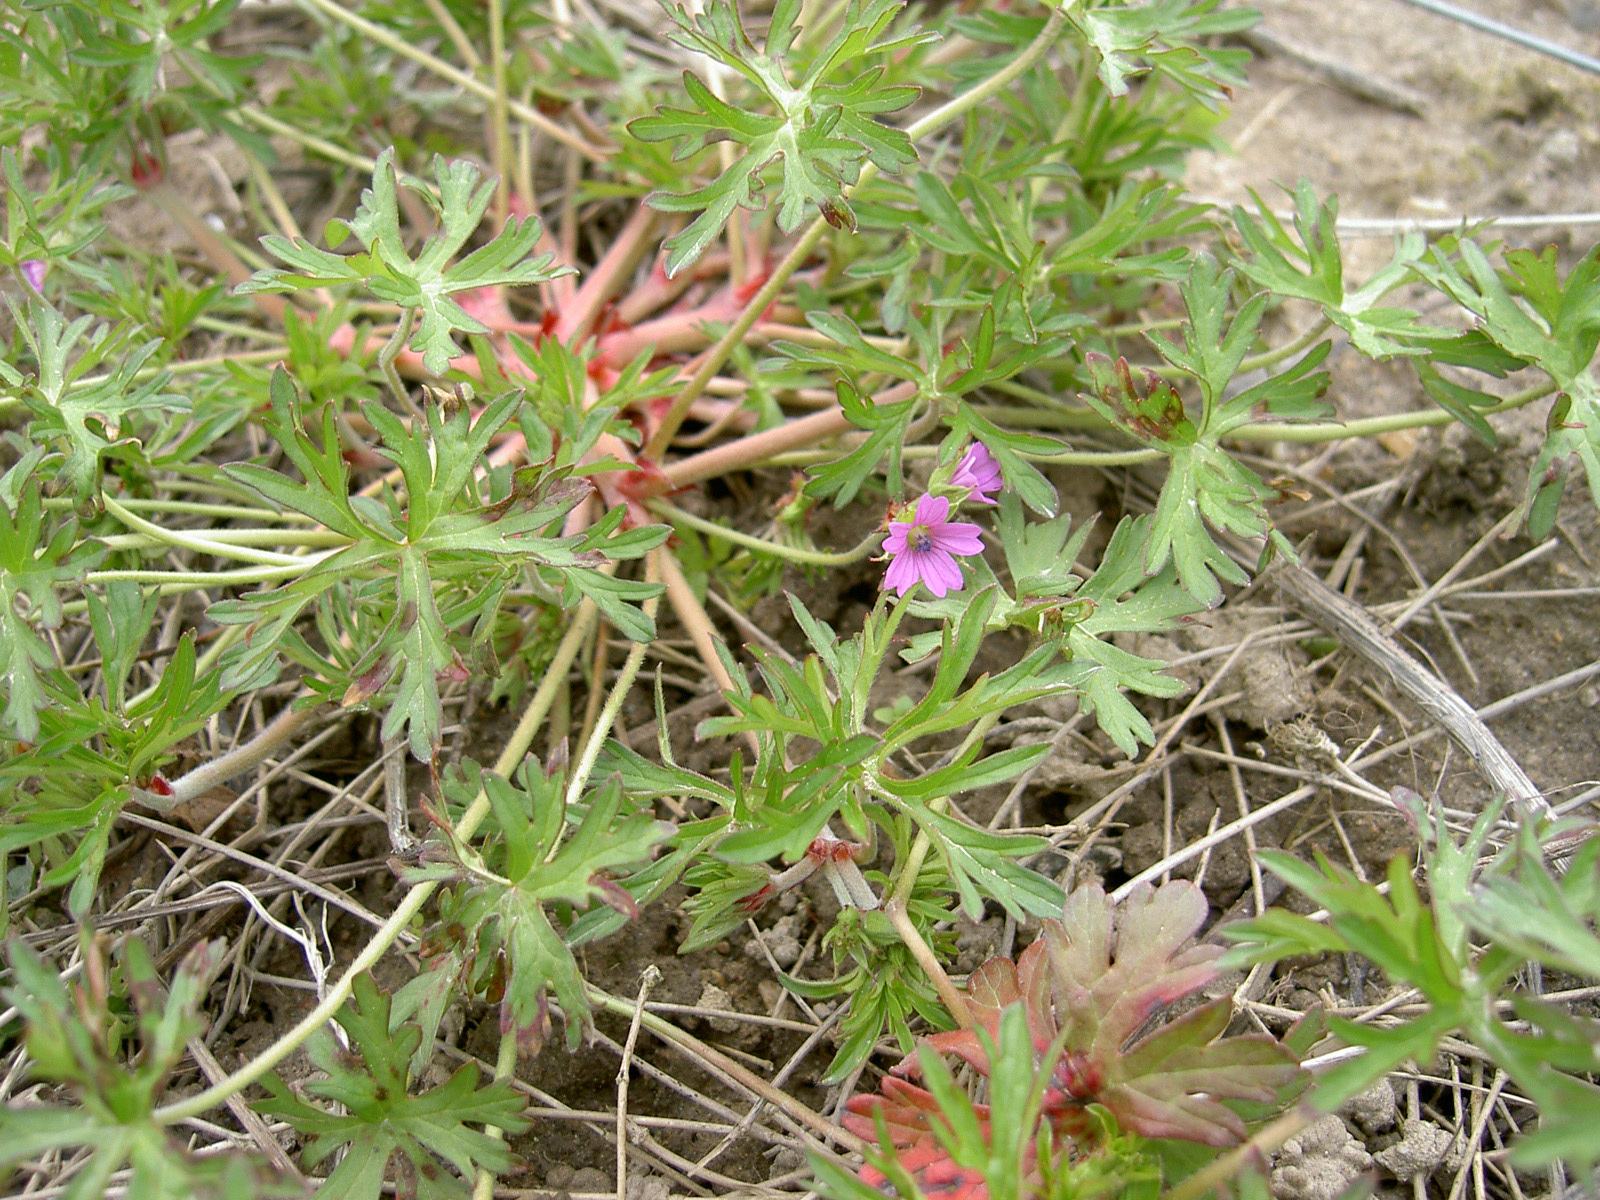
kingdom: Plantae
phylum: Tracheophyta
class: Magnoliopsida
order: Geraniales
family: Geraniaceae
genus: Geranium
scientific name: Geranium dissectum
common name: Cut-leaved crane's-bill
